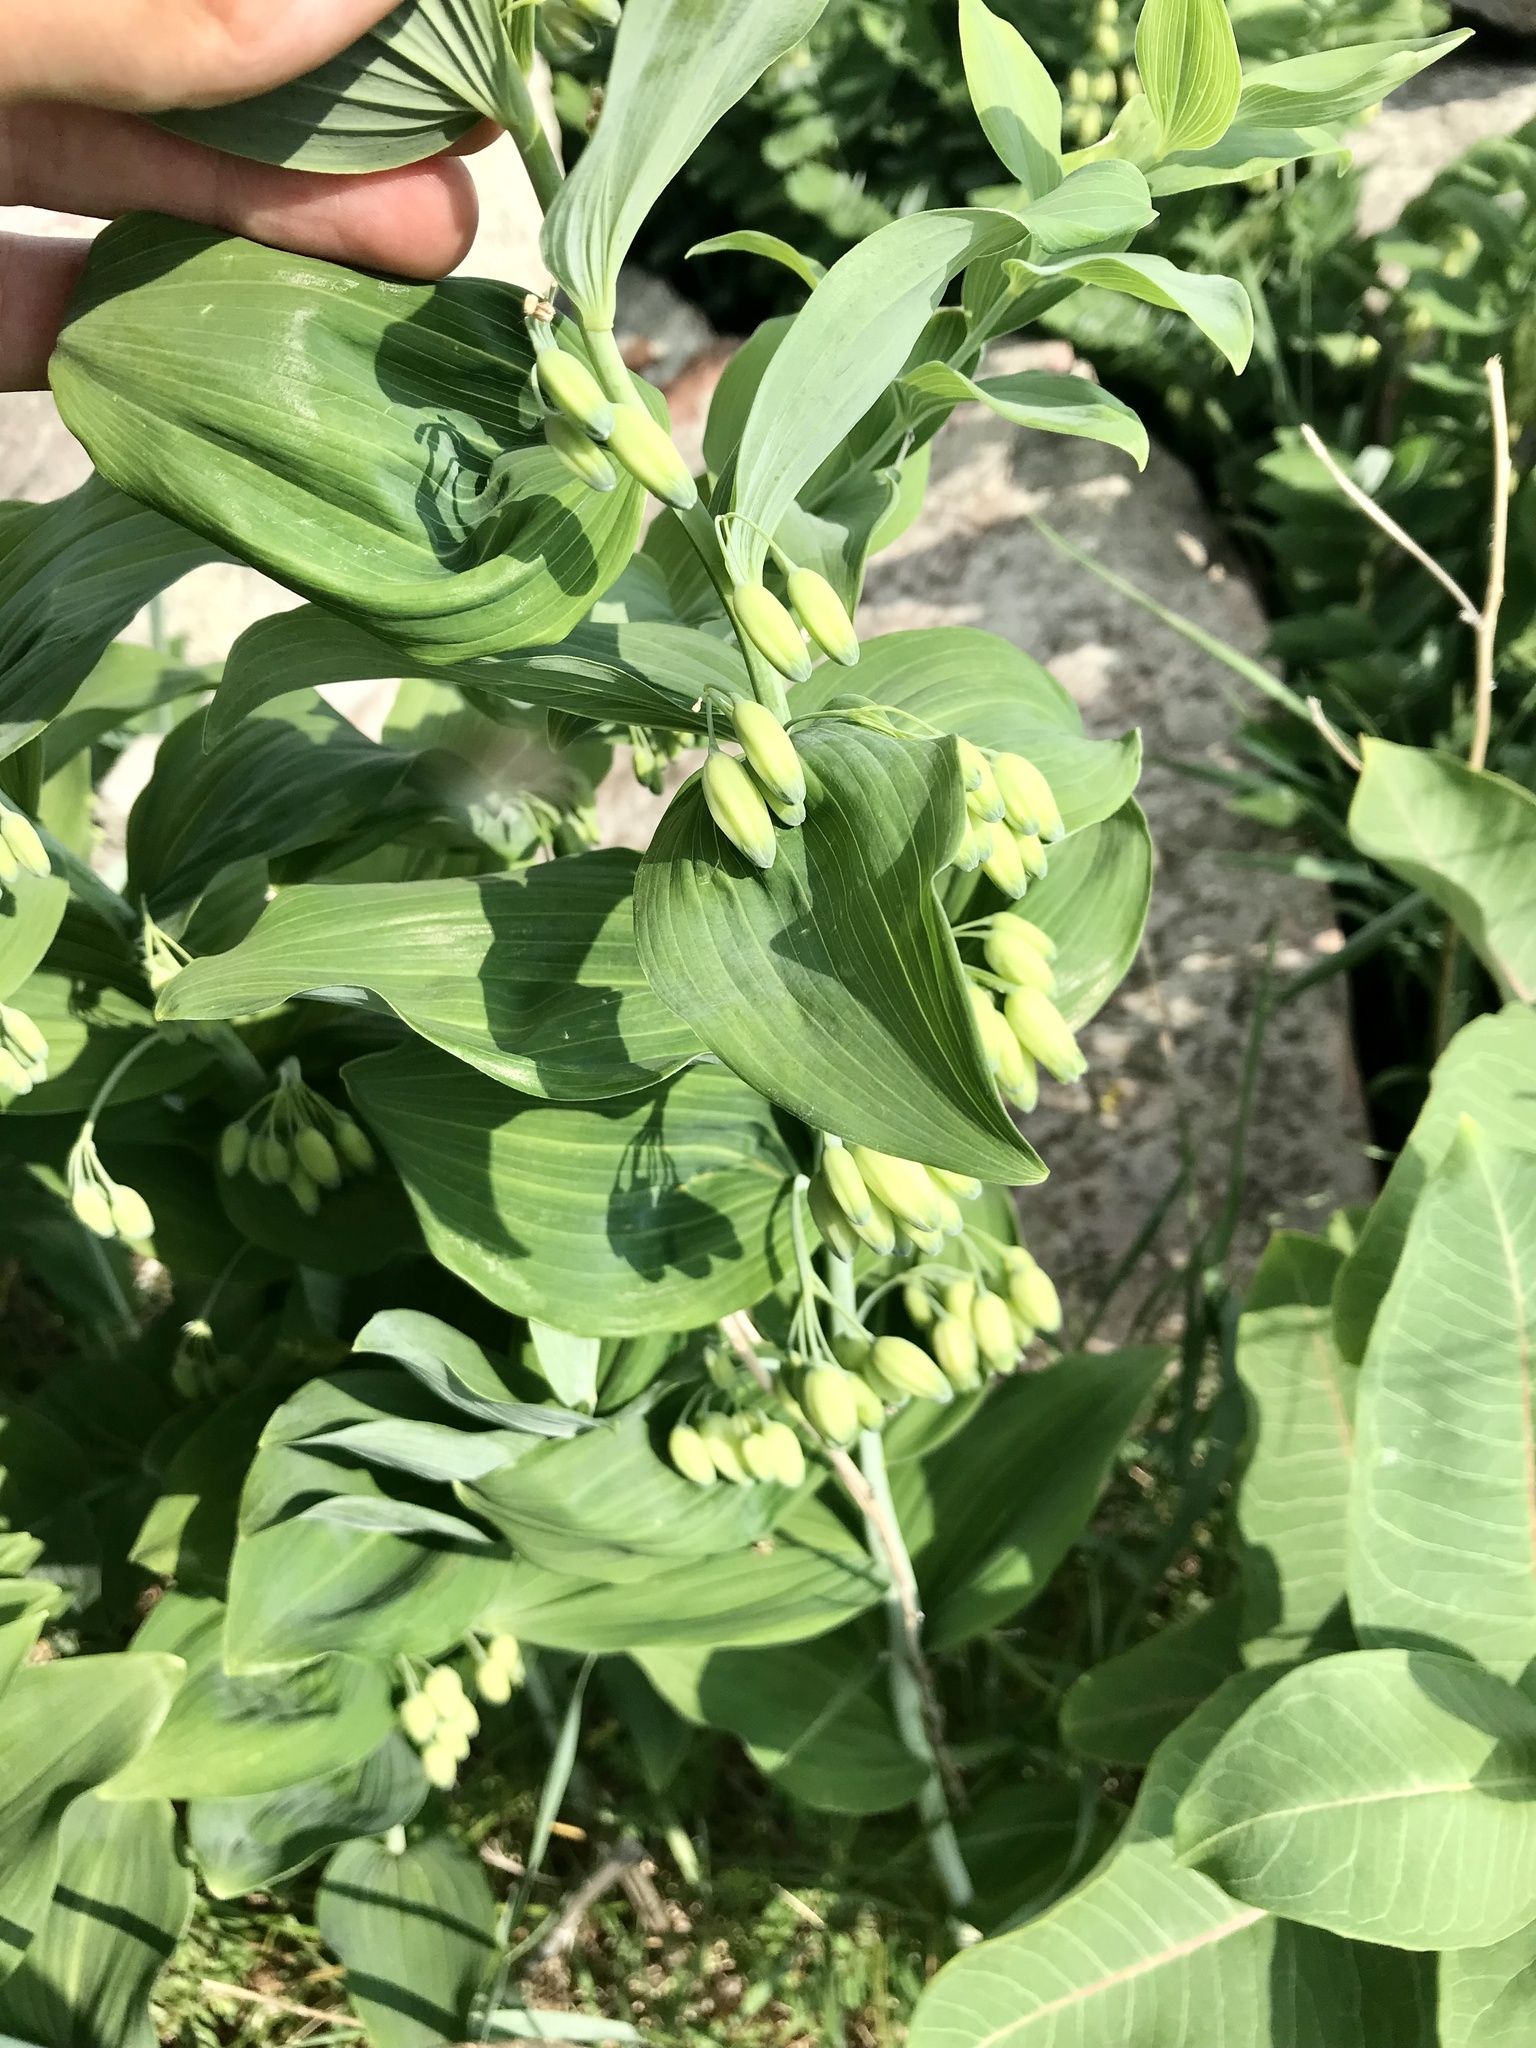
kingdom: Plantae
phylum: Tracheophyta
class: Liliopsida
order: Asparagales
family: Asparagaceae
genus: Polygonatum
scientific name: Polygonatum biflorum
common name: American solomon's-seal
